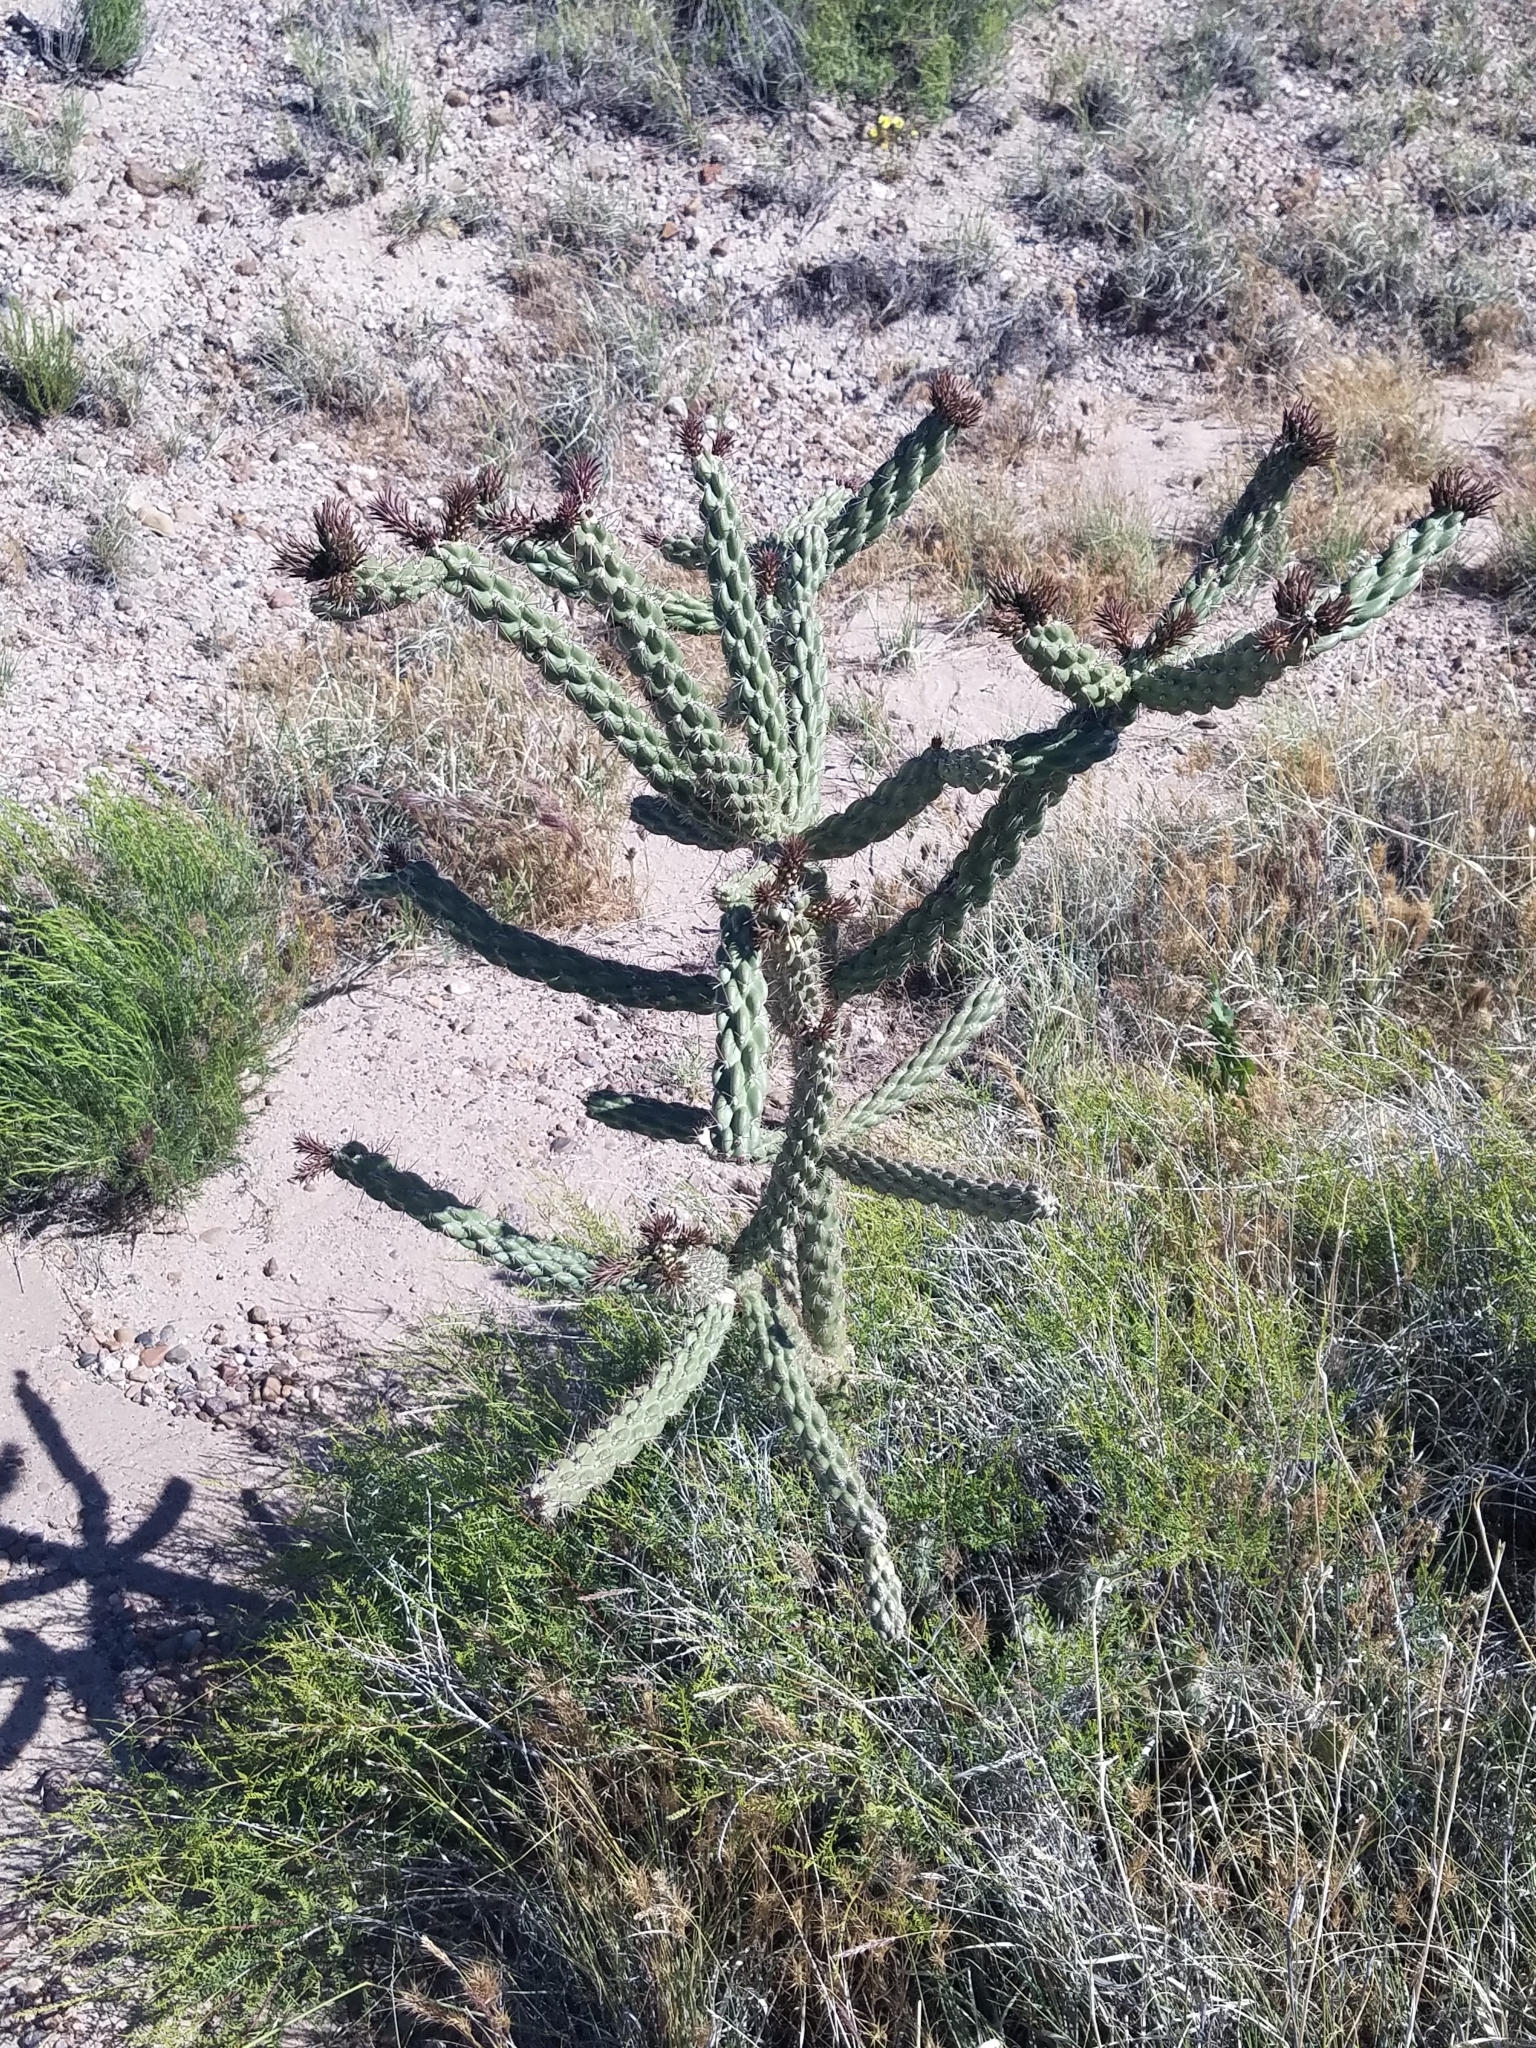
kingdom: Plantae
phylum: Tracheophyta
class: Magnoliopsida
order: Caryophyllales
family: Cactaceae
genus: Cylindropuntia
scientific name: Cylindropuntia imbricata
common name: Candelabrum cactus
